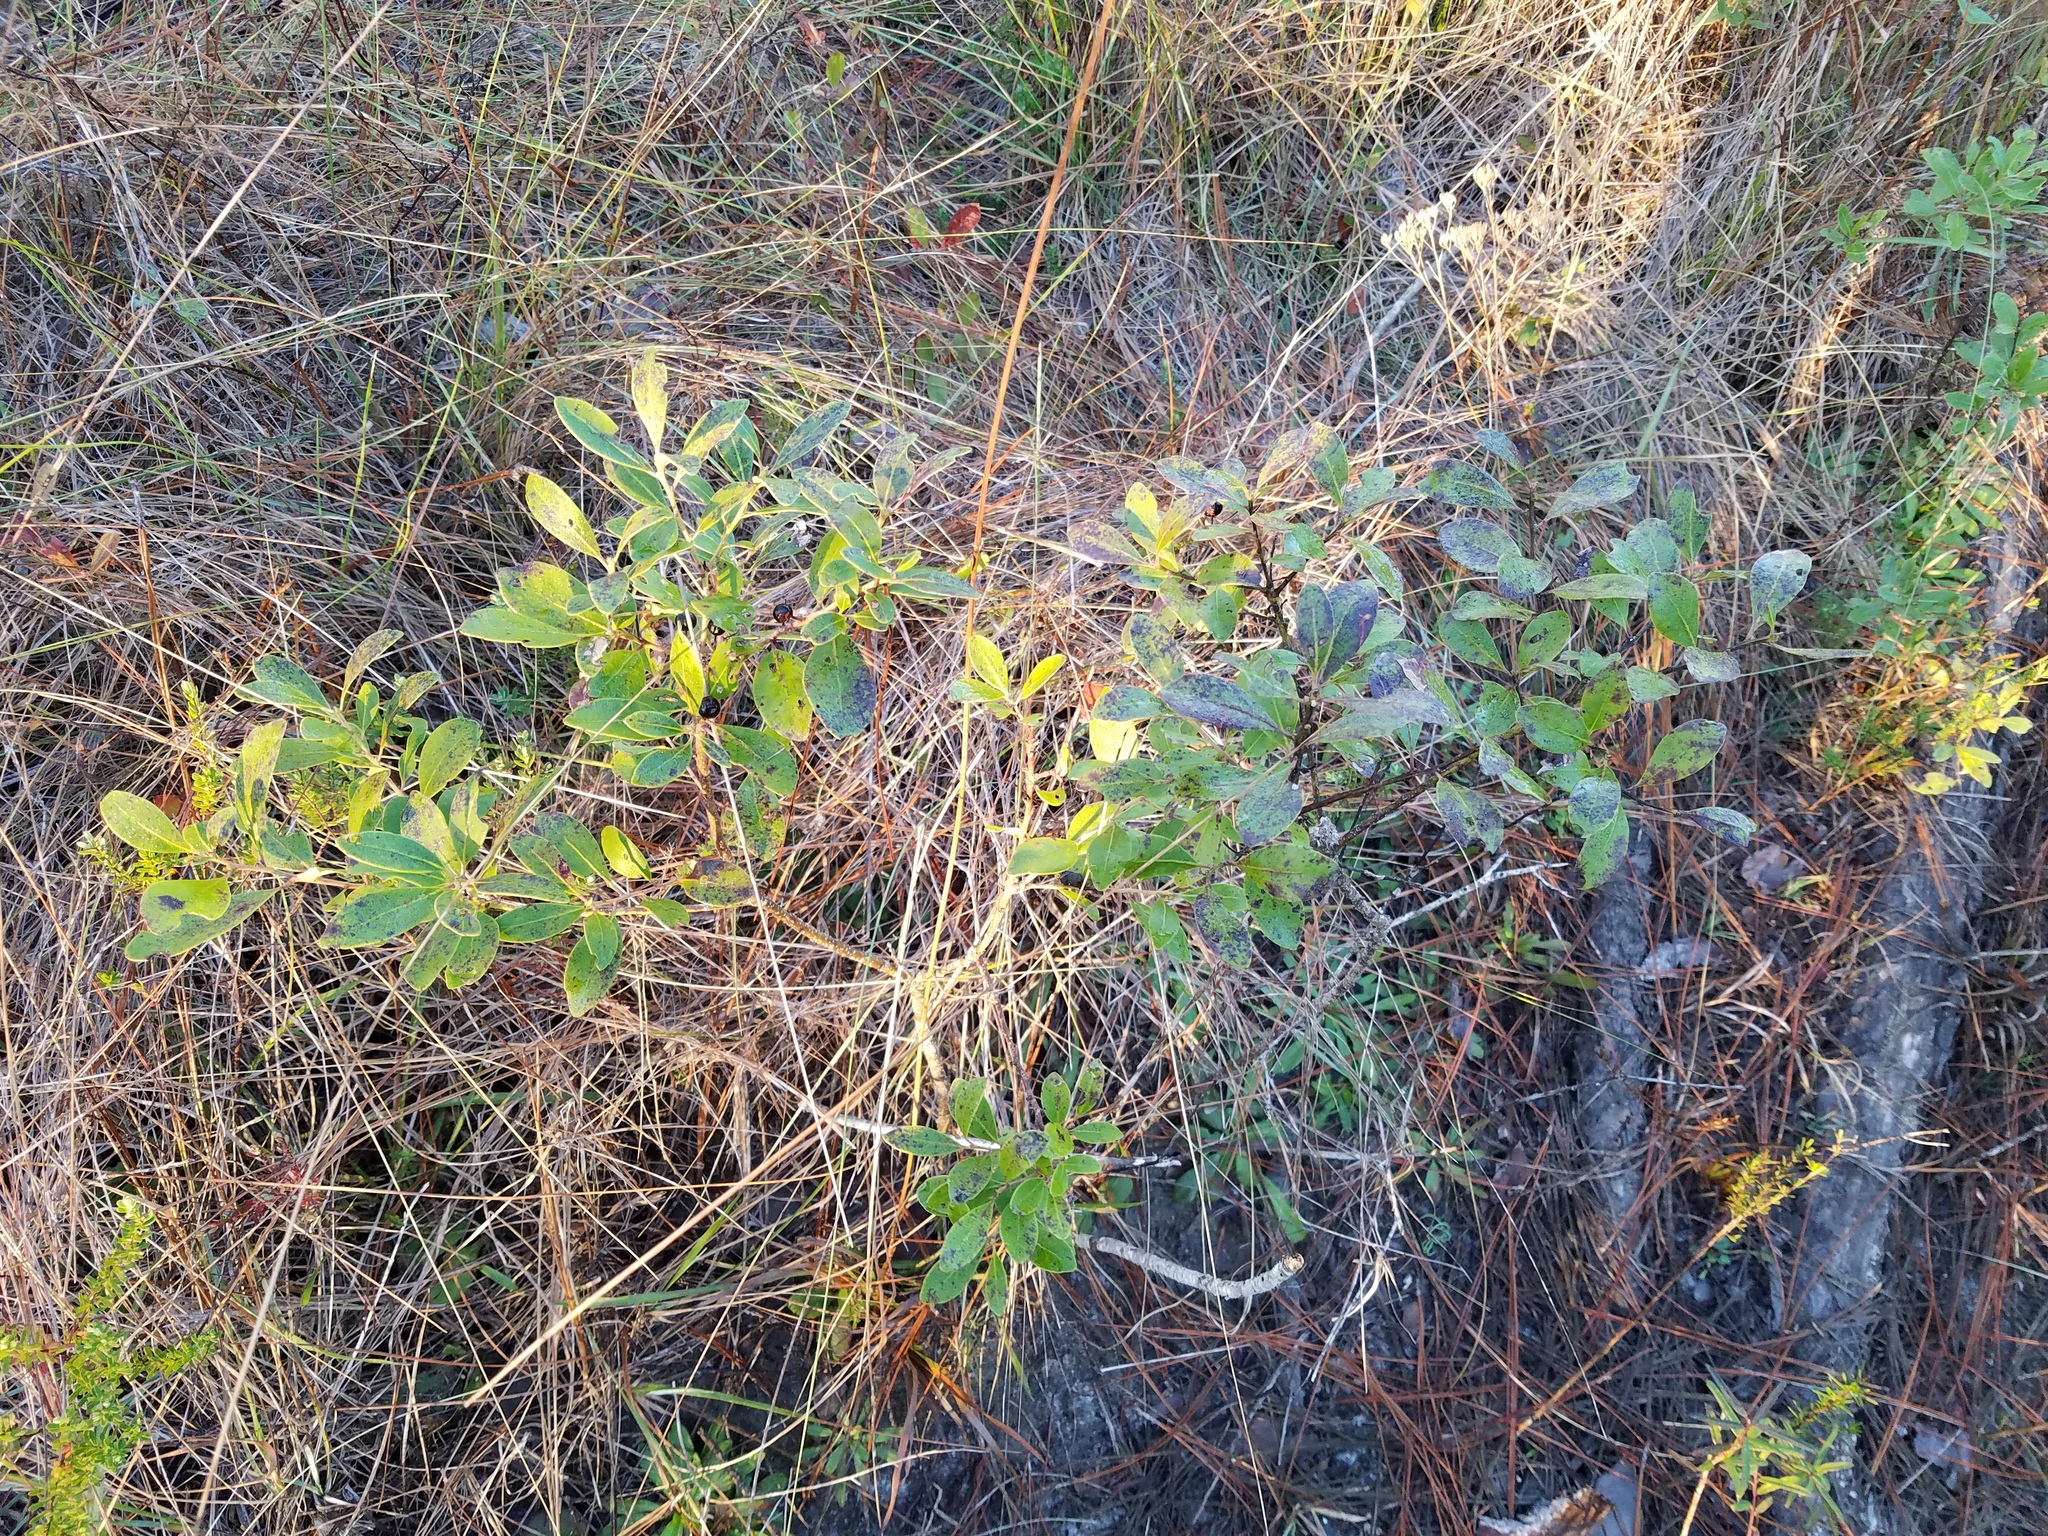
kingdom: Plantae
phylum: Tracheophyta
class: Magnoliopsida
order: Aquifoliales
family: Aquifoliaceae
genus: Ilex
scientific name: Ilex glabra
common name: Bitter gallberry
